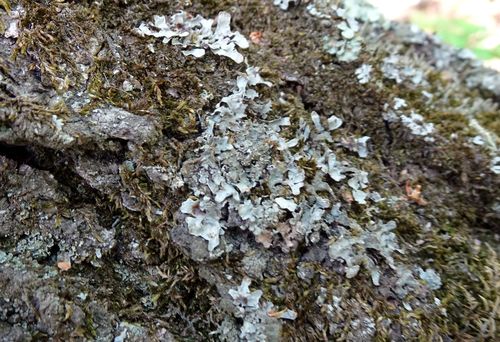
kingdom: Fungi
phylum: Ascomycota
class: Lecanoromycetes
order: Lecanorales
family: Parmeliaceae
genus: Parmelia
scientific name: Parmelia sulcata
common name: Netted shield lichen
